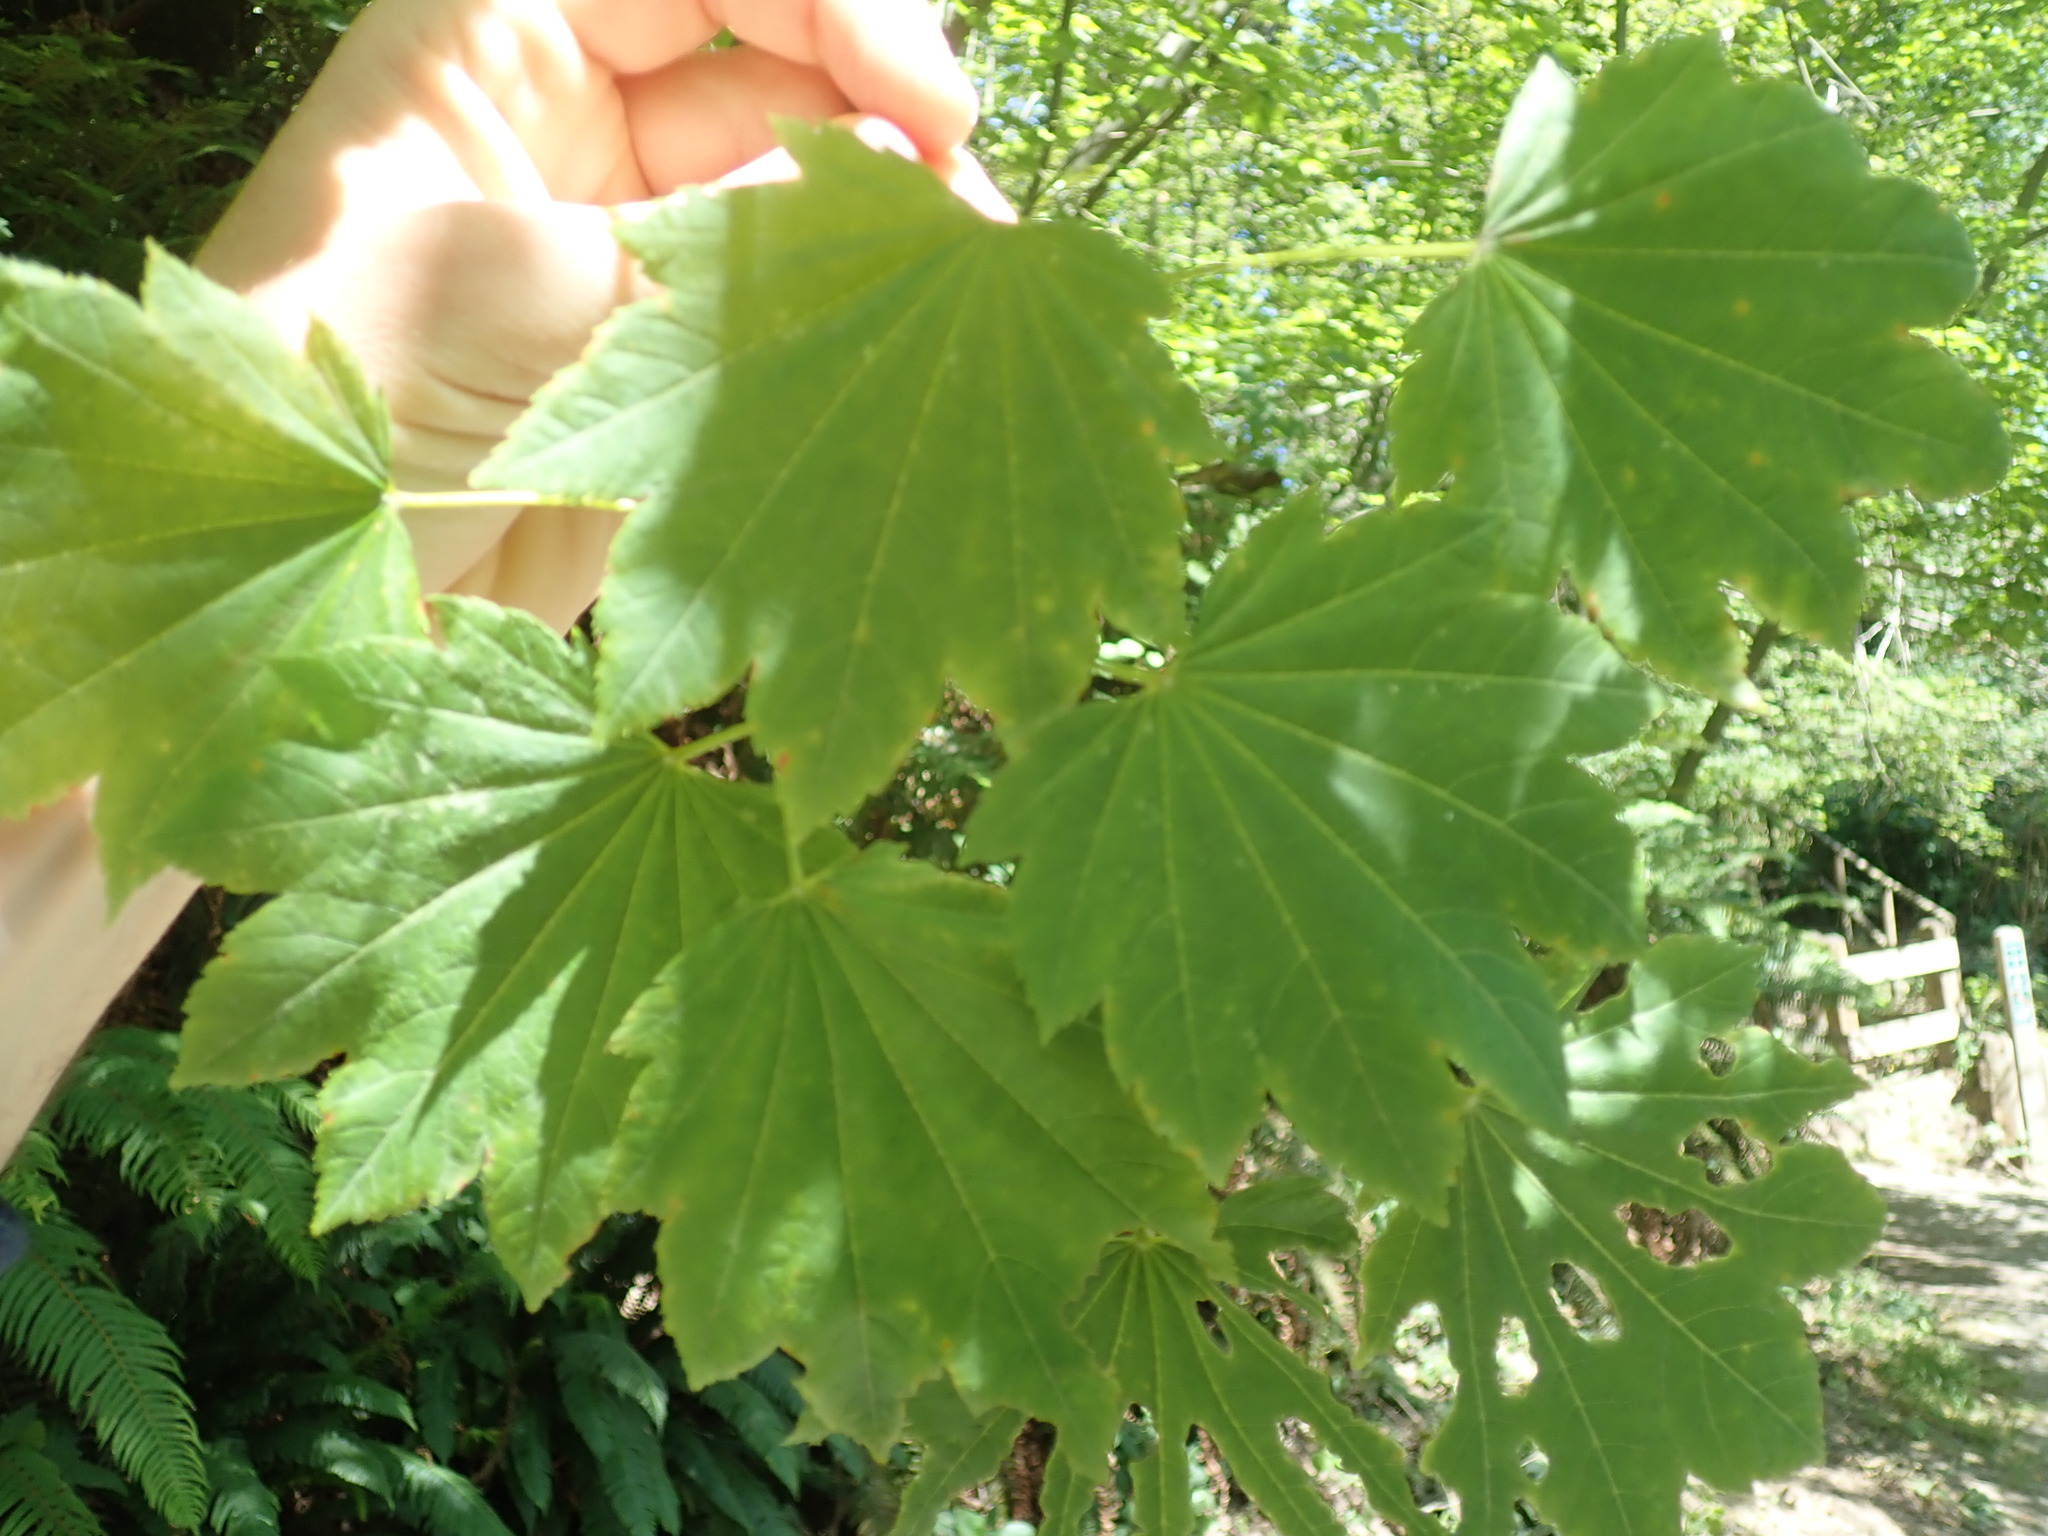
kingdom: Plantae
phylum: Tracheophyta
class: Magnoliopsida
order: Sapindales
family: Sapindaceae
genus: Acer
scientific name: Acer circinatum
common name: Vine maple
